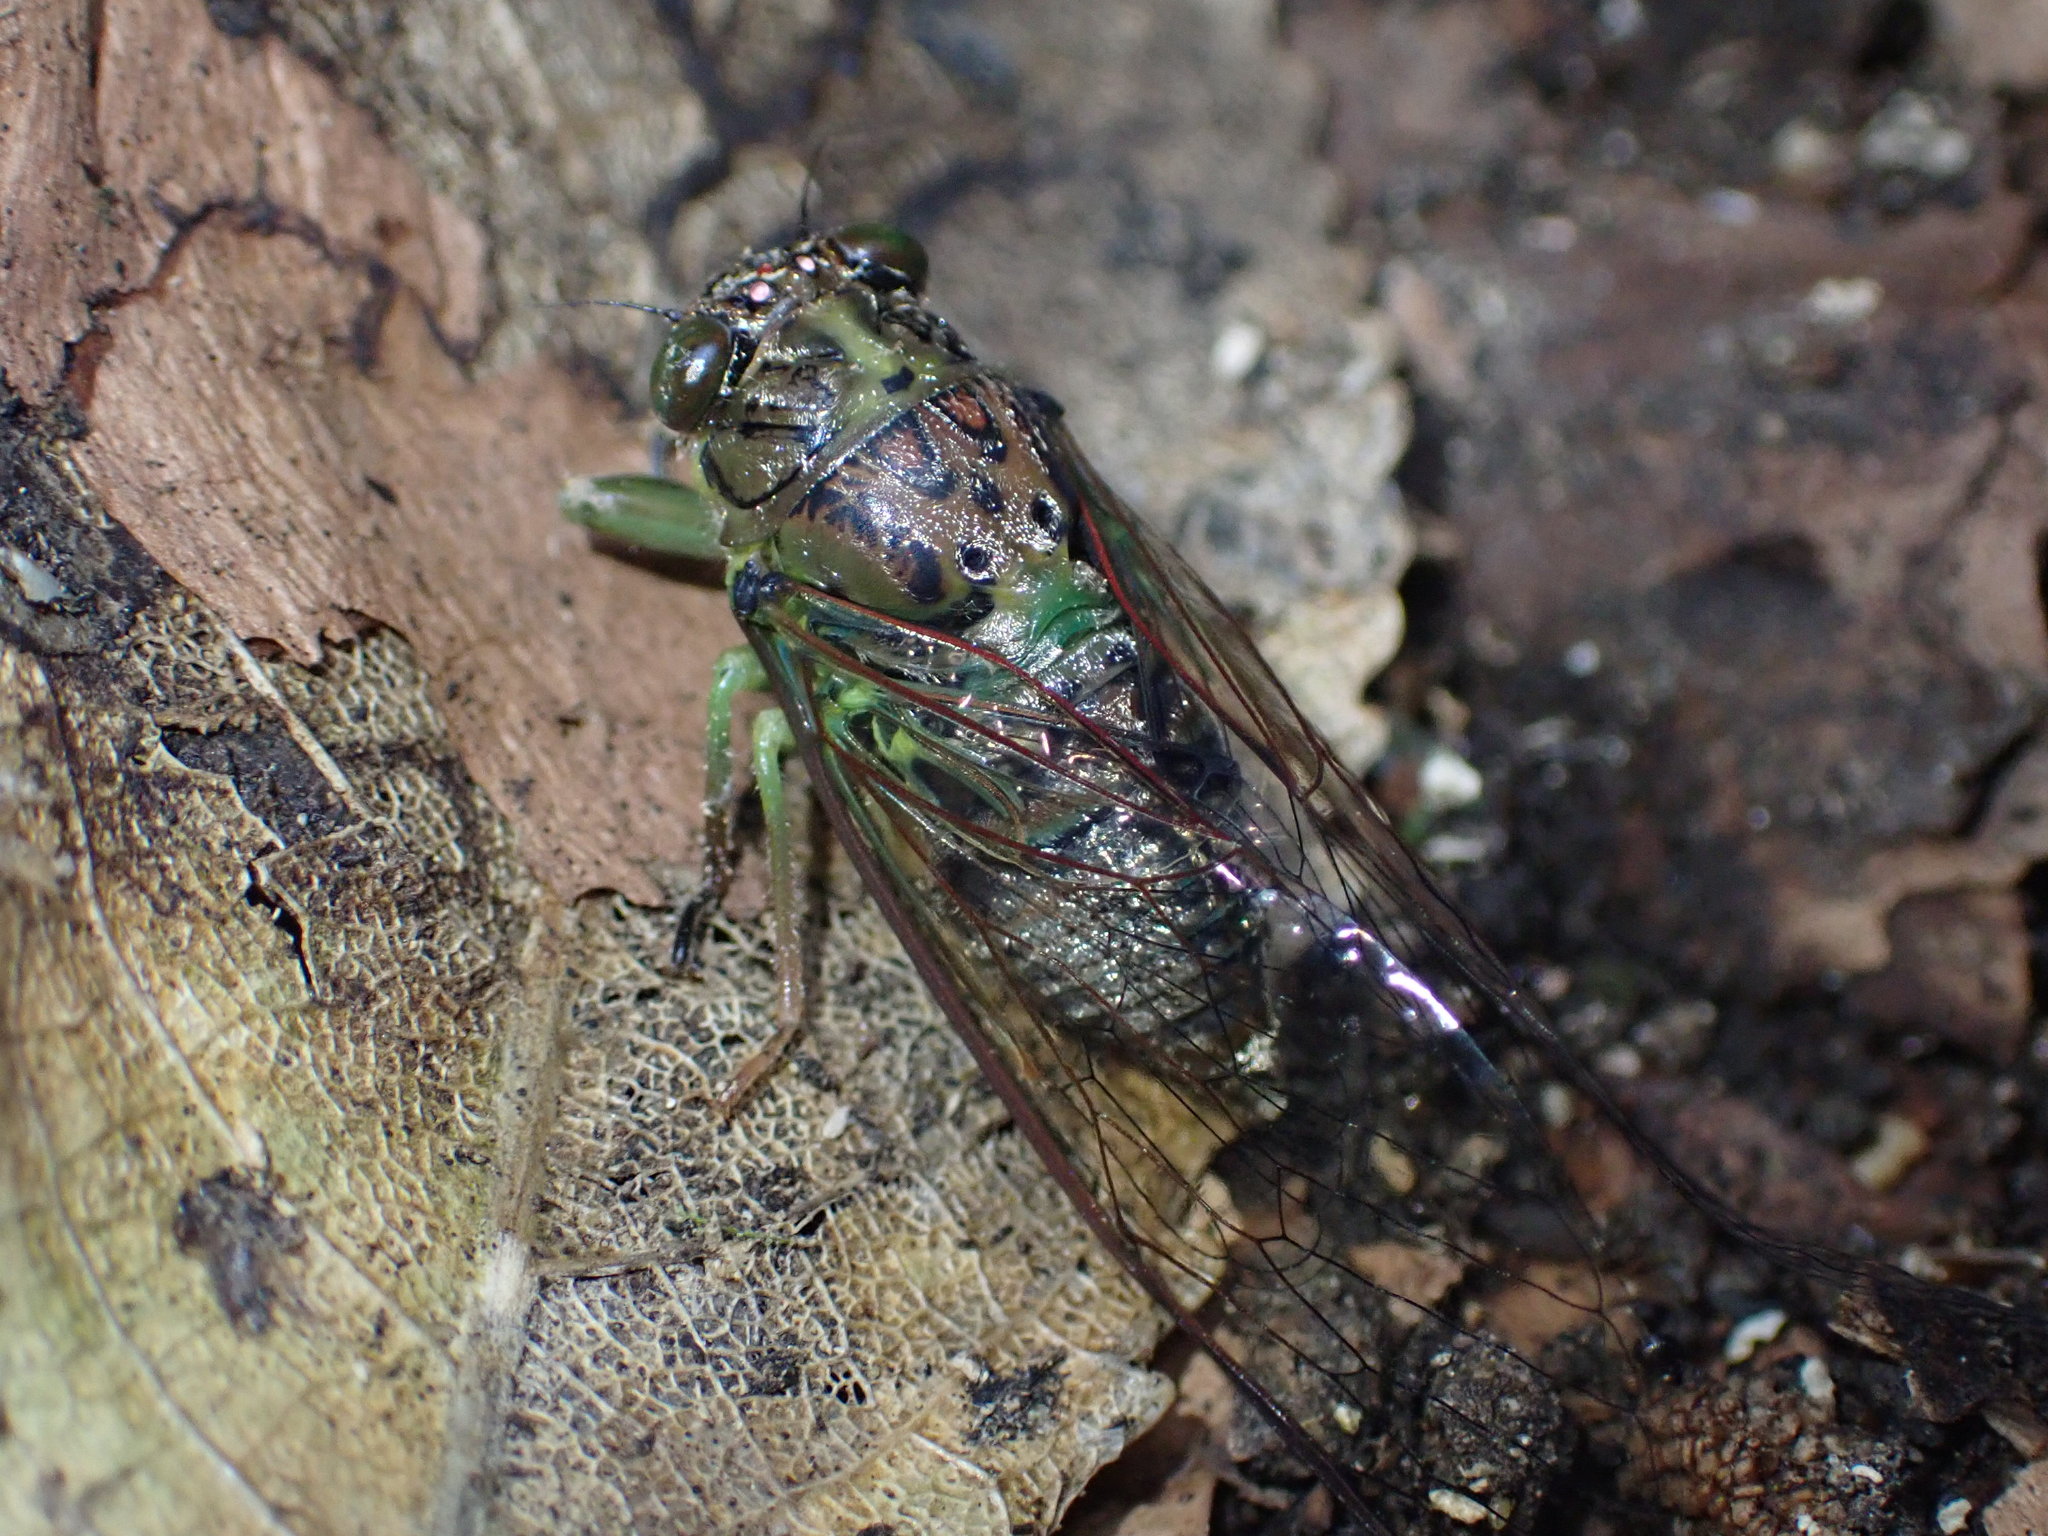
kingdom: Animalia
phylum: Arthropoda
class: Insecta
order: Hemiptera
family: Cicadidae
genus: Kikihia
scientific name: Kikihia scutellaris
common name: Lesser bronze cicada
